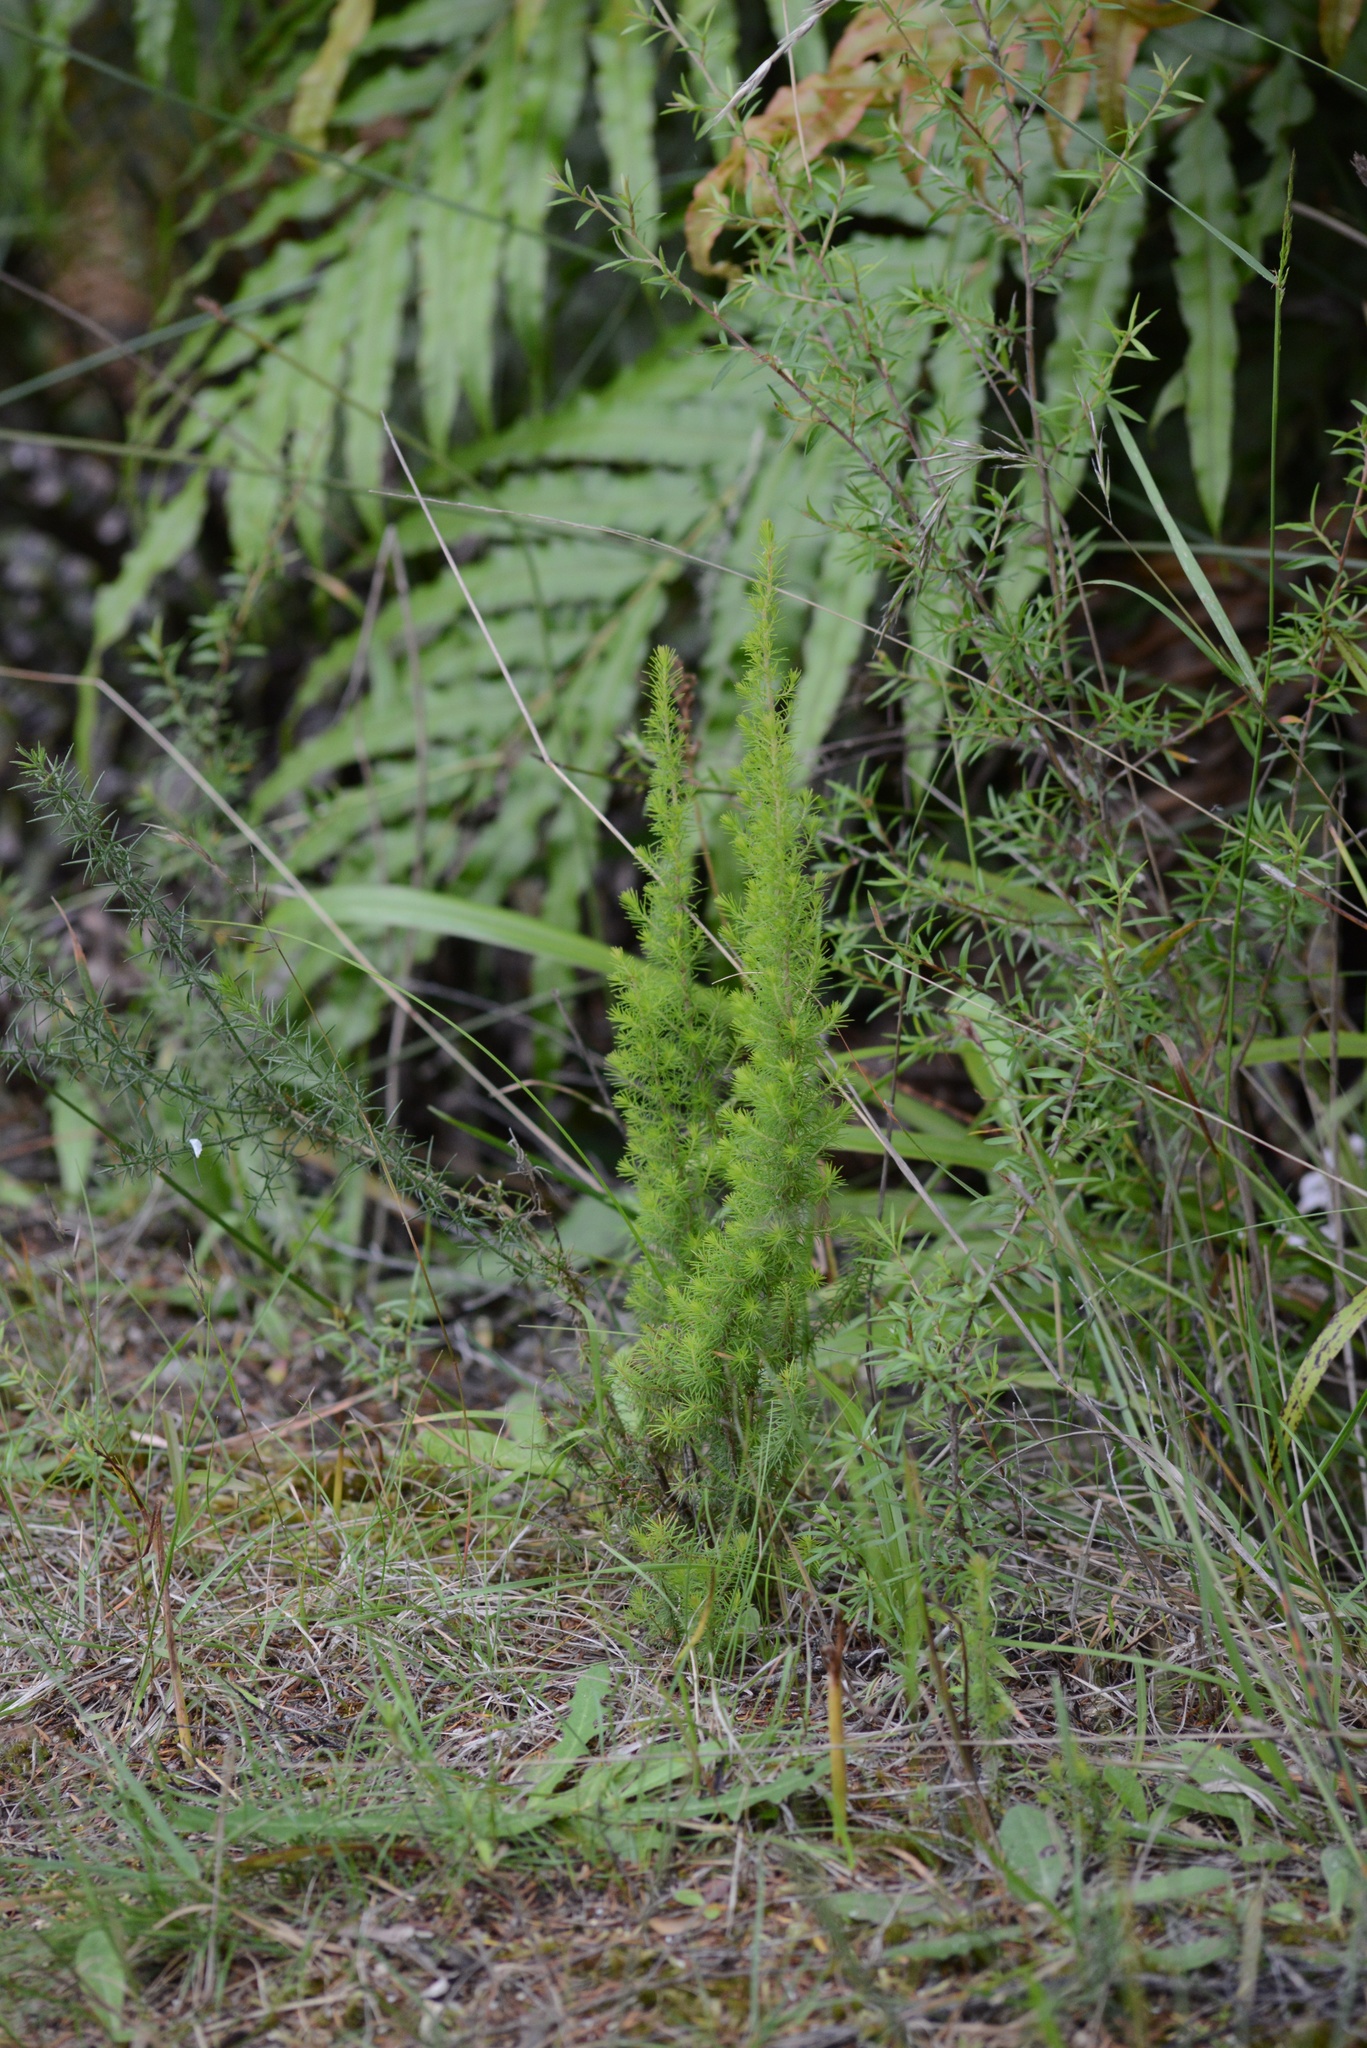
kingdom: Plantae
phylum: Tracheophyta
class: Magnoliopsida
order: Ericales
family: Ericaceae
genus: Erica
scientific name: Erica lusitanica
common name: Spanish heath
